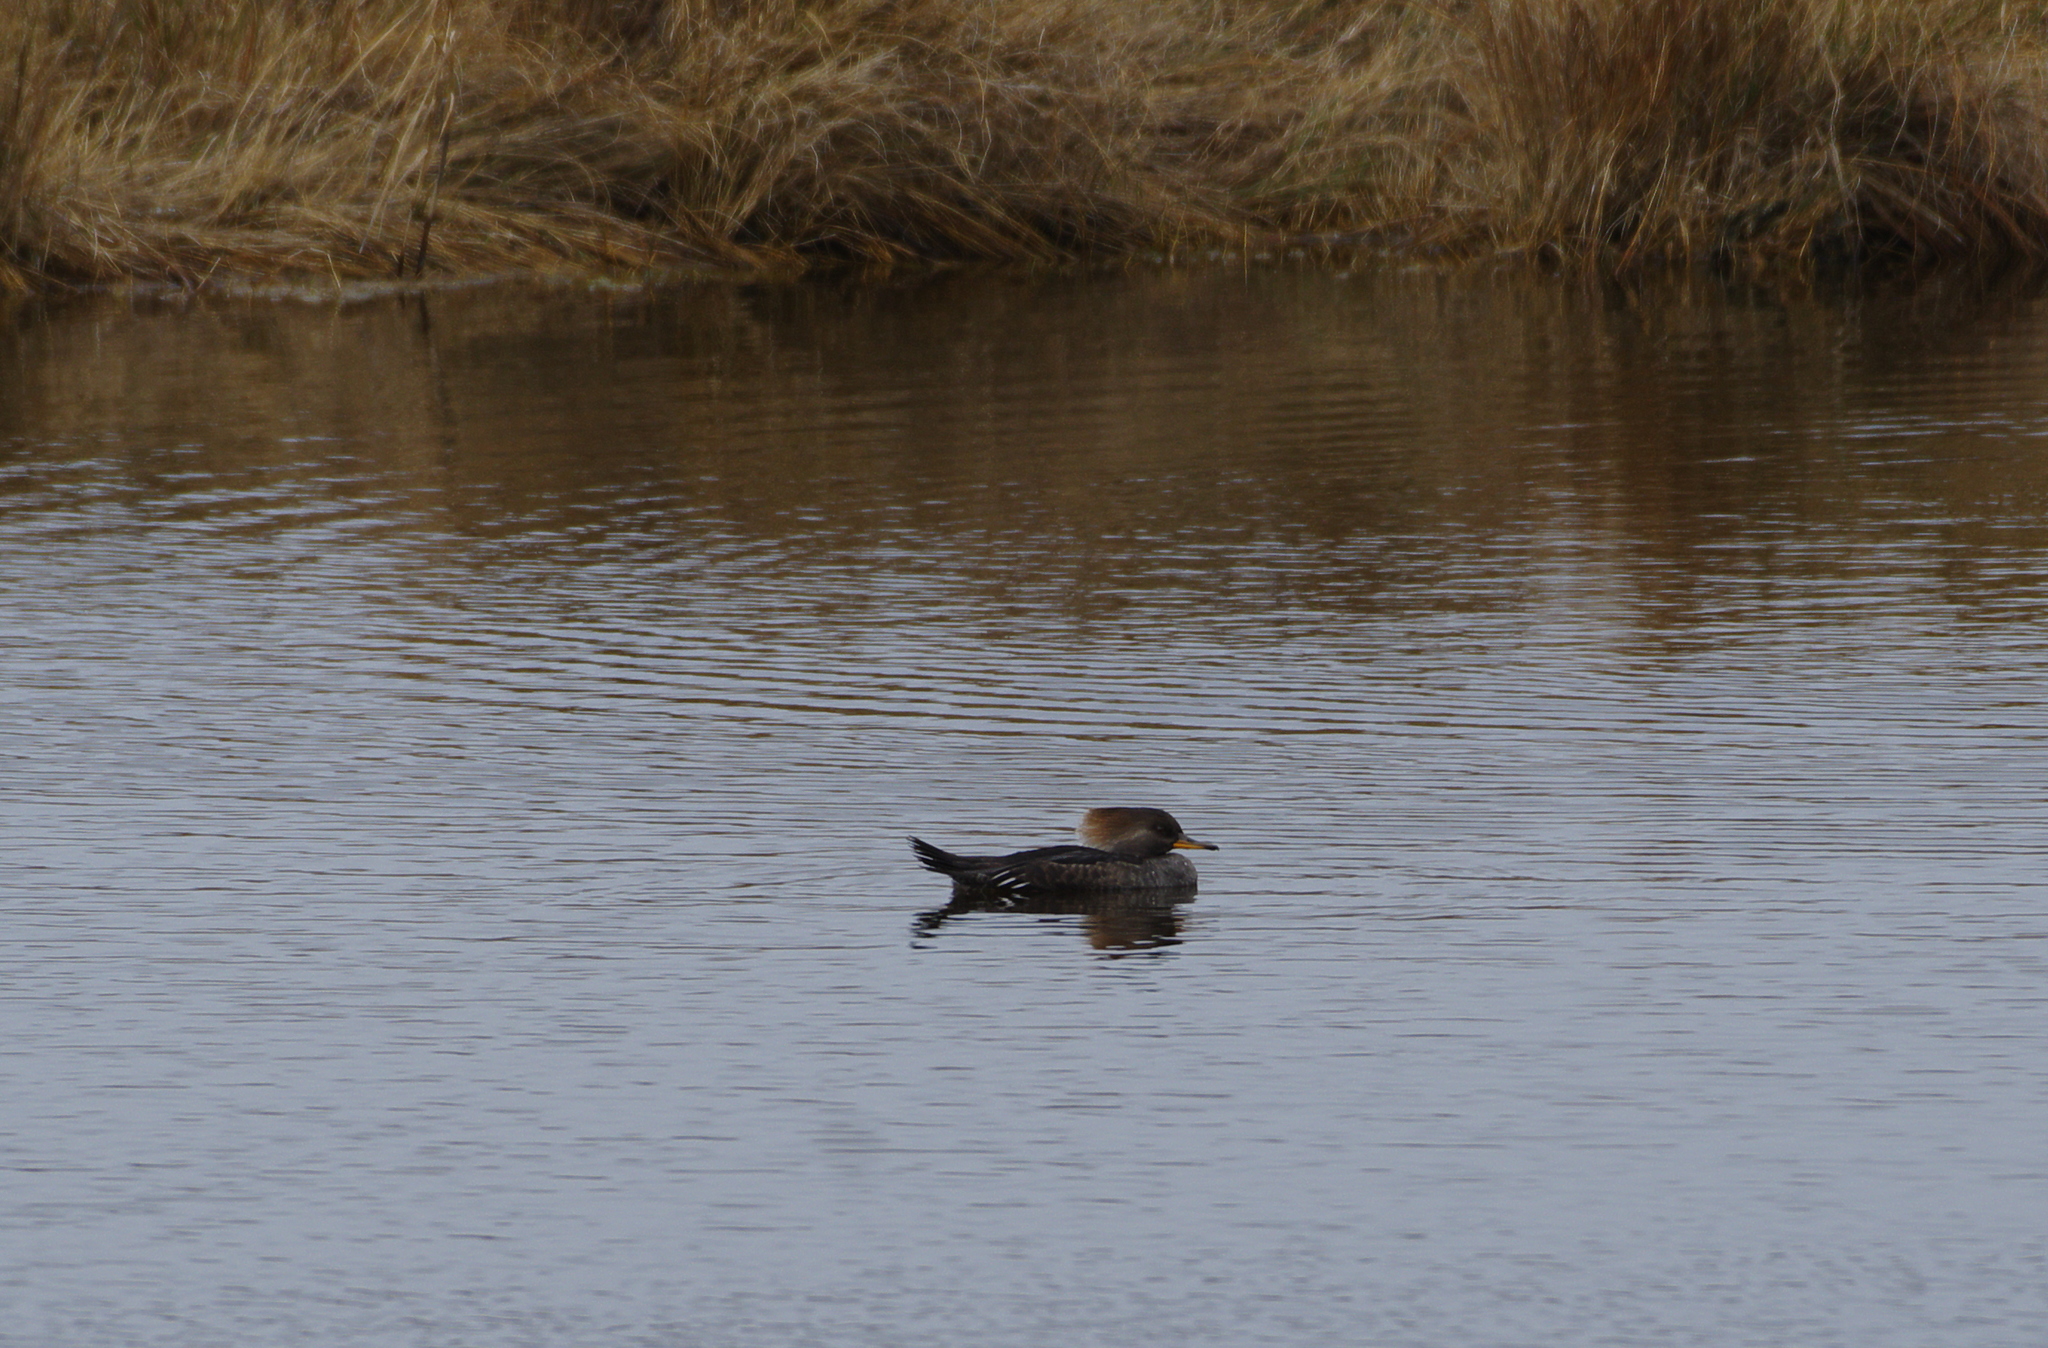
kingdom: Animalia
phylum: Chordata
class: Aves
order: Anseriformes
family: Anatidae
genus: Lophodytes
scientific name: Lophodytes cucullatus
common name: Hooded merganser
